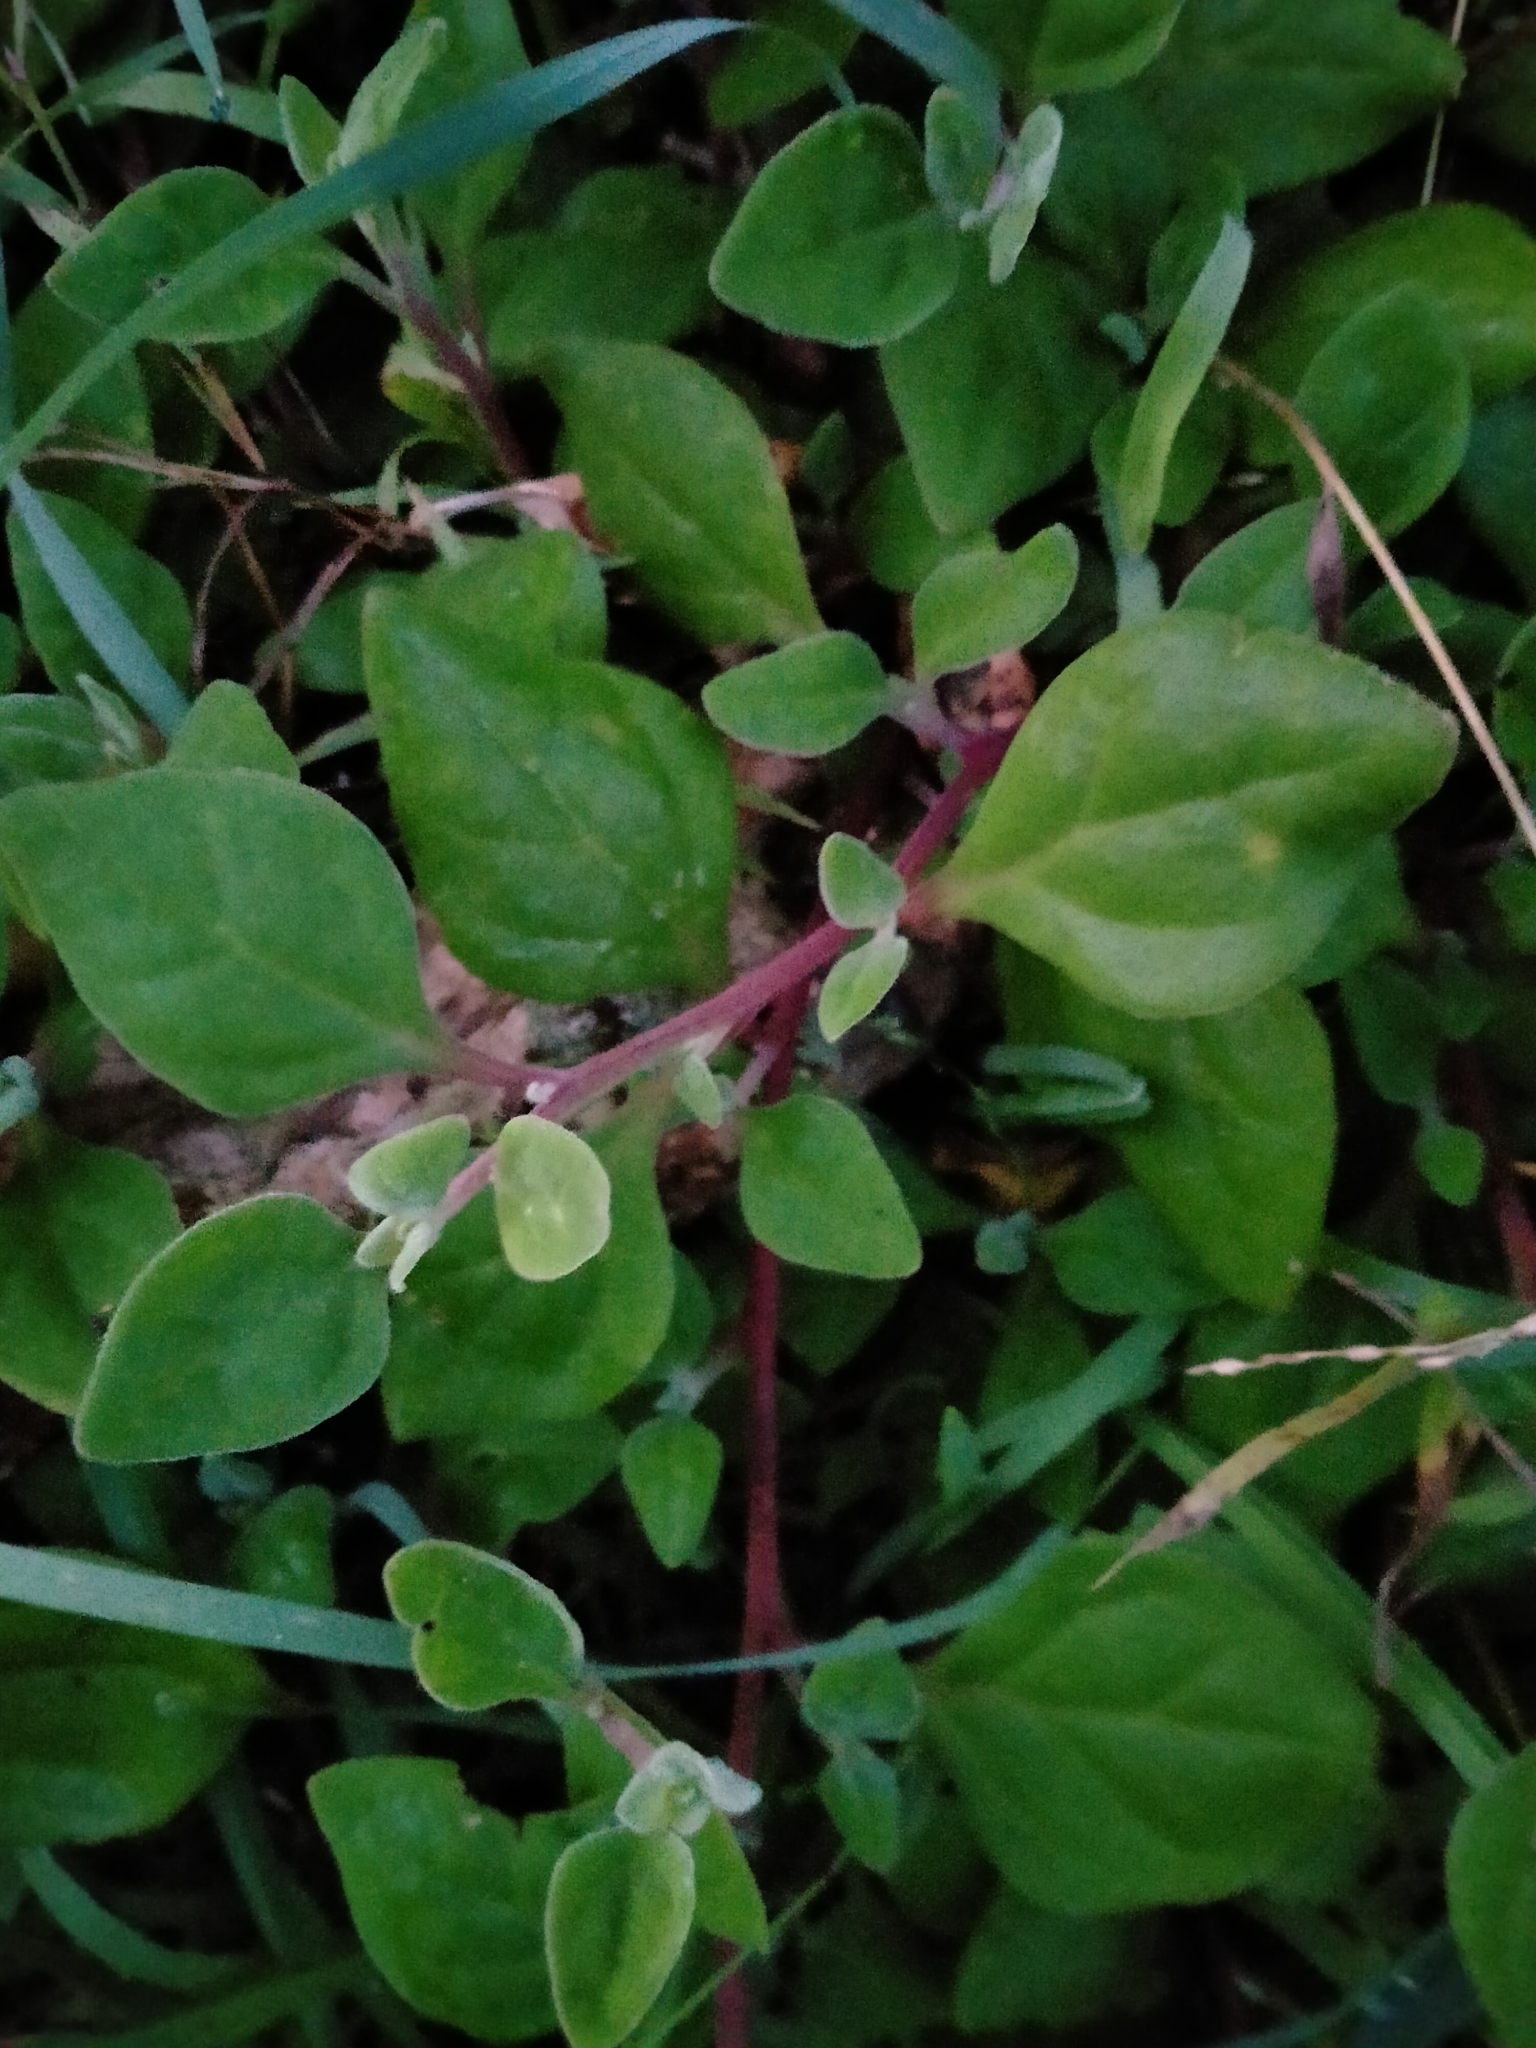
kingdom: Plantae
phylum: Tracheophyta
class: Magnoliopsida
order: Caryophyllales
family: Aizoaceae
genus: Tetragonia
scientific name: Tetragonia implexicoma
